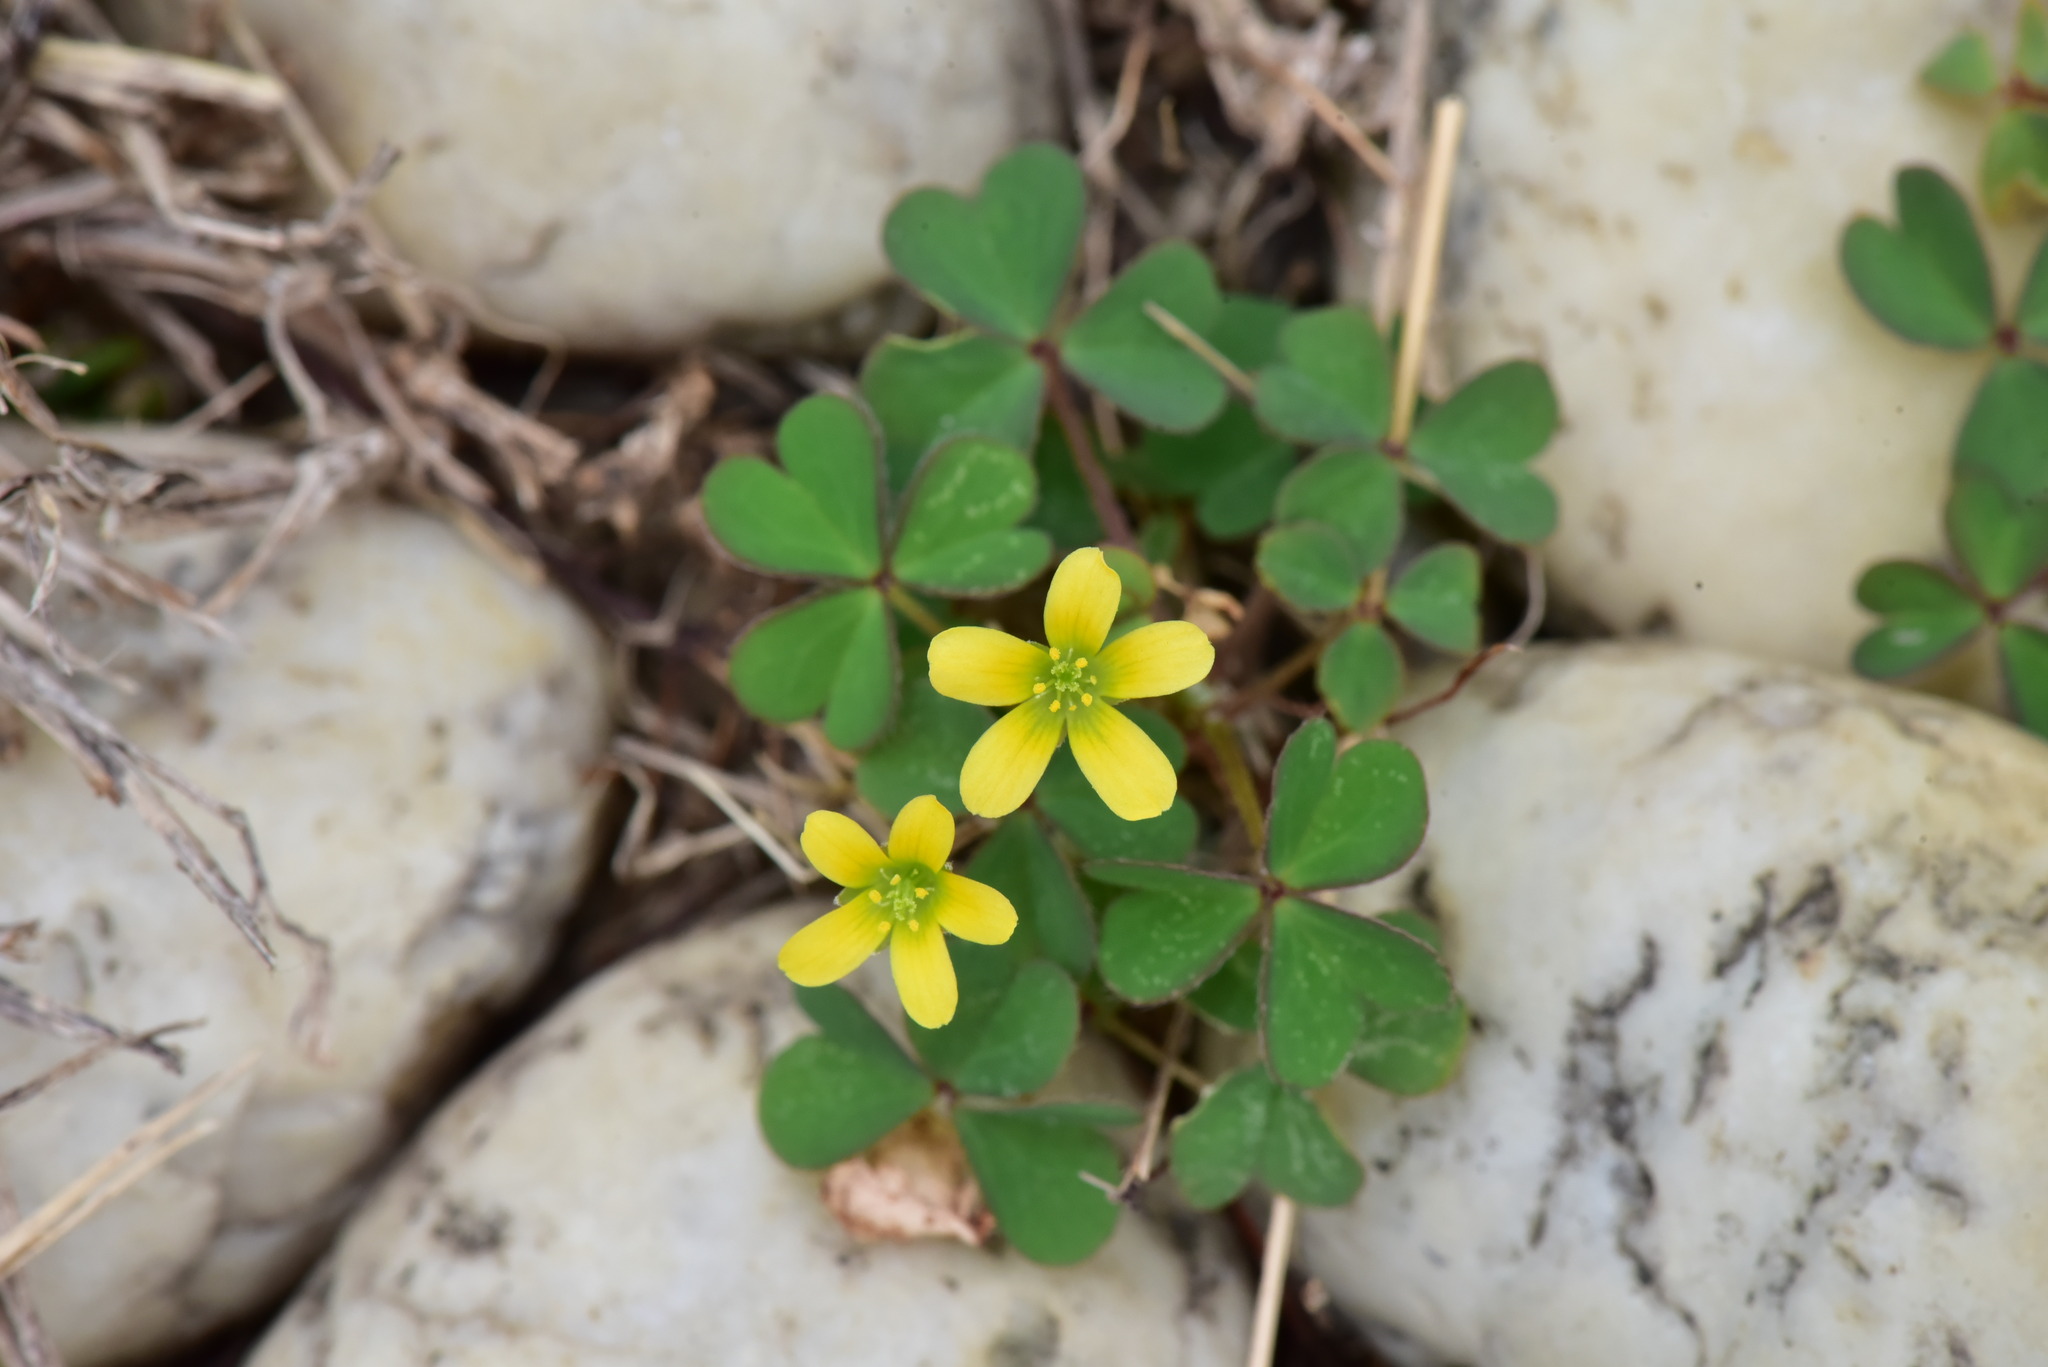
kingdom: Plantae
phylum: Tracheophyta
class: Magnoliopsida
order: Oxalidales
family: Oxalidaceae
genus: Oxalis
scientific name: Oxalis corniculata
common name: Procumbent yellow-sorrel
